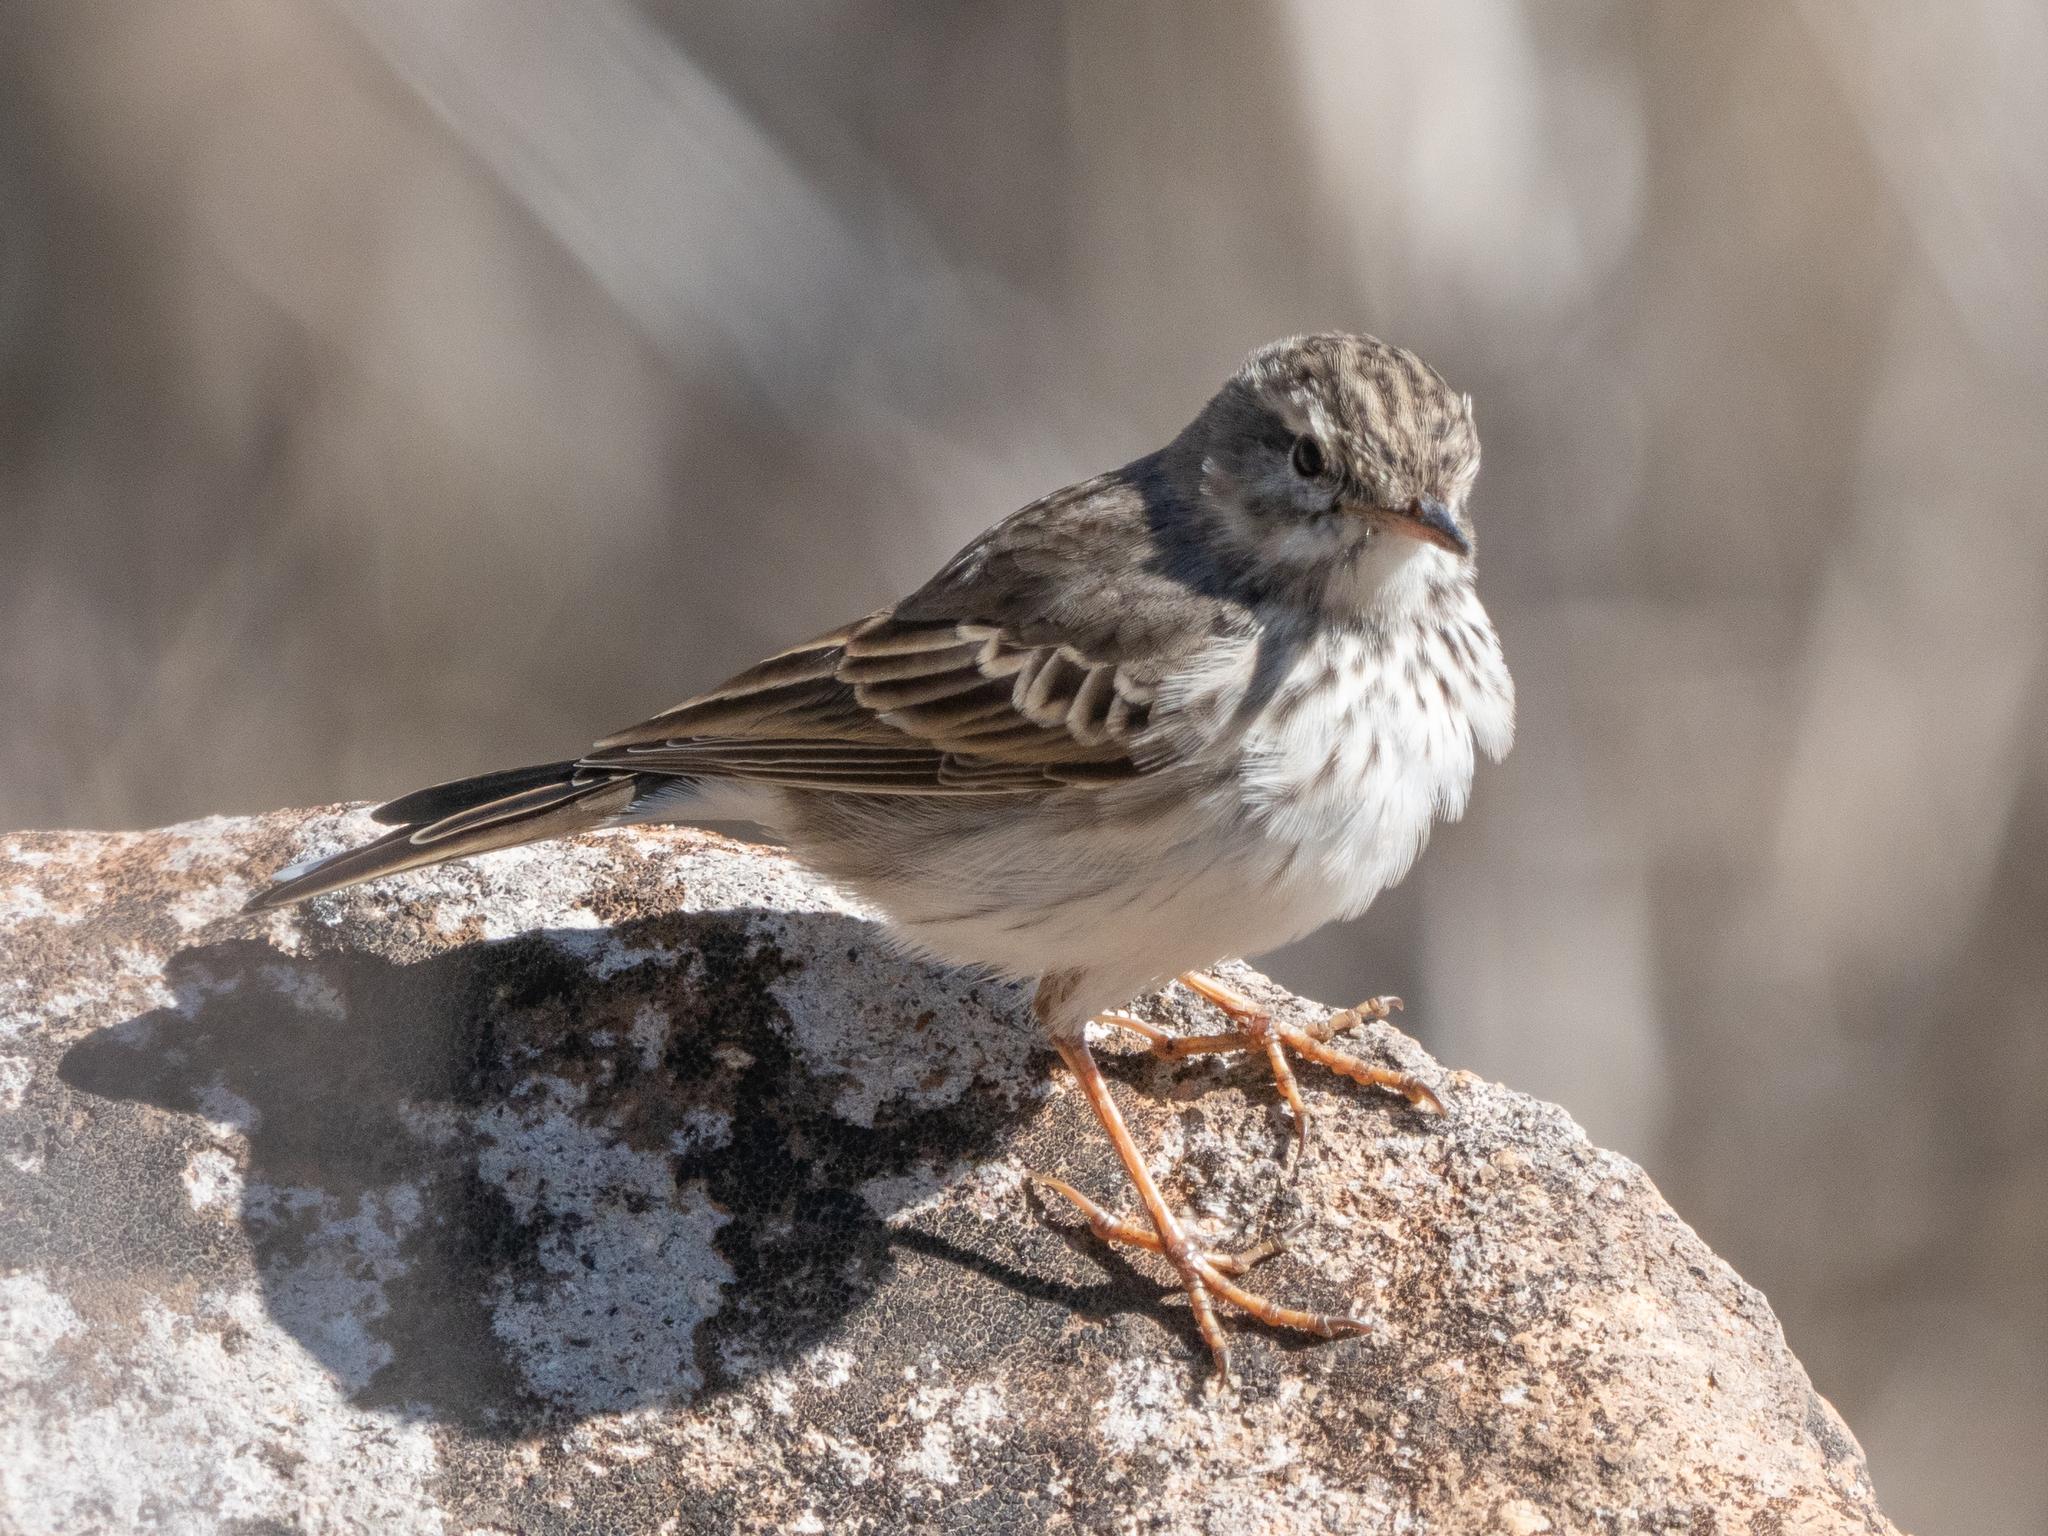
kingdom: Animalia
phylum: Chordata
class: Aves
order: Passeriformes
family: Motacillidae
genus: Anthus
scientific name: Anthus berthelotii
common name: Berthelot's pipit
